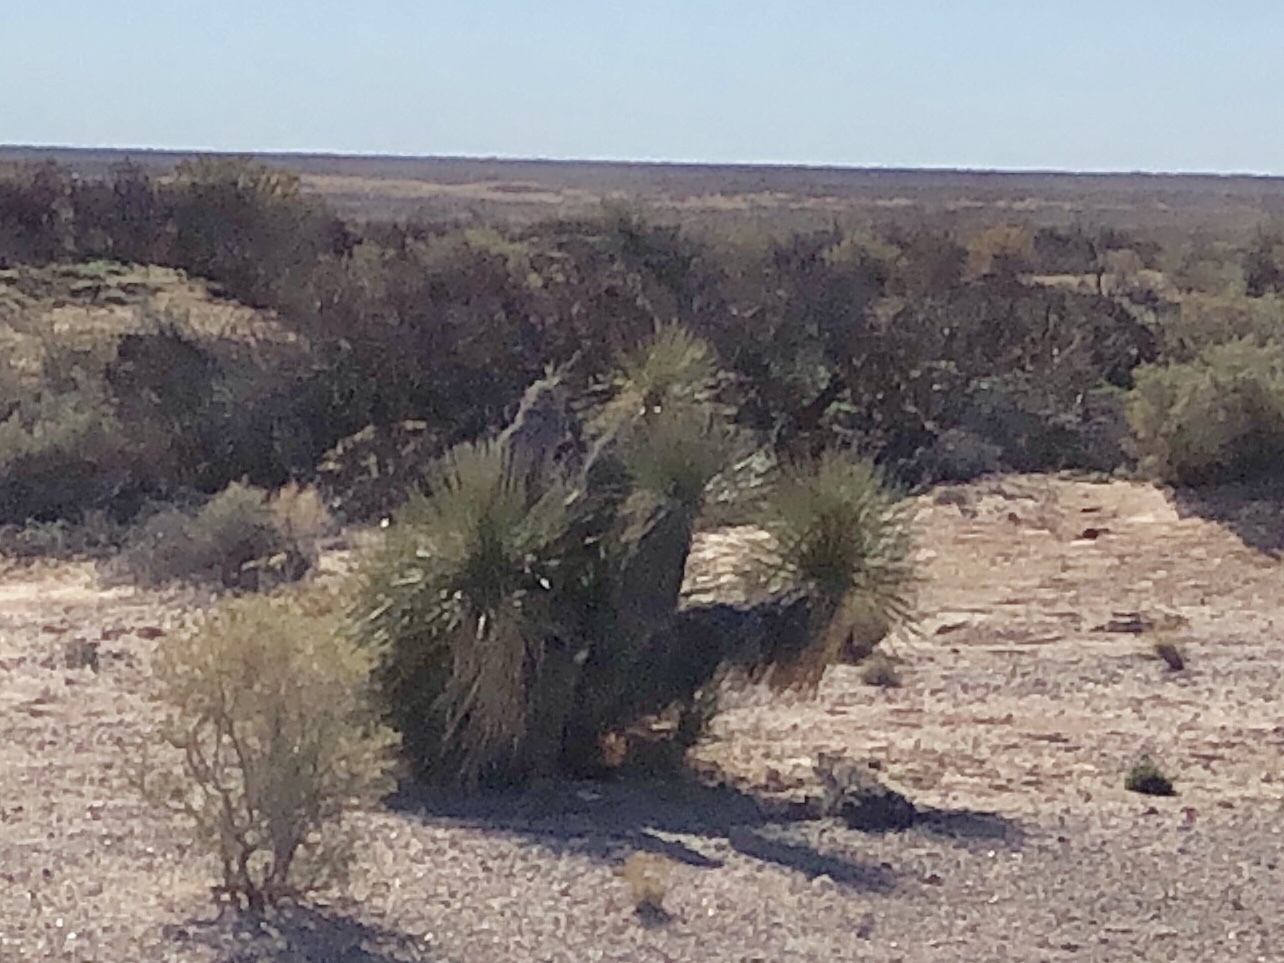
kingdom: Plantae
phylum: Tracheophyta
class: Liliopsida
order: Asparagales
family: Asparagaceae
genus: Yucca
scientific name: Yucca elata
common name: Palmella
